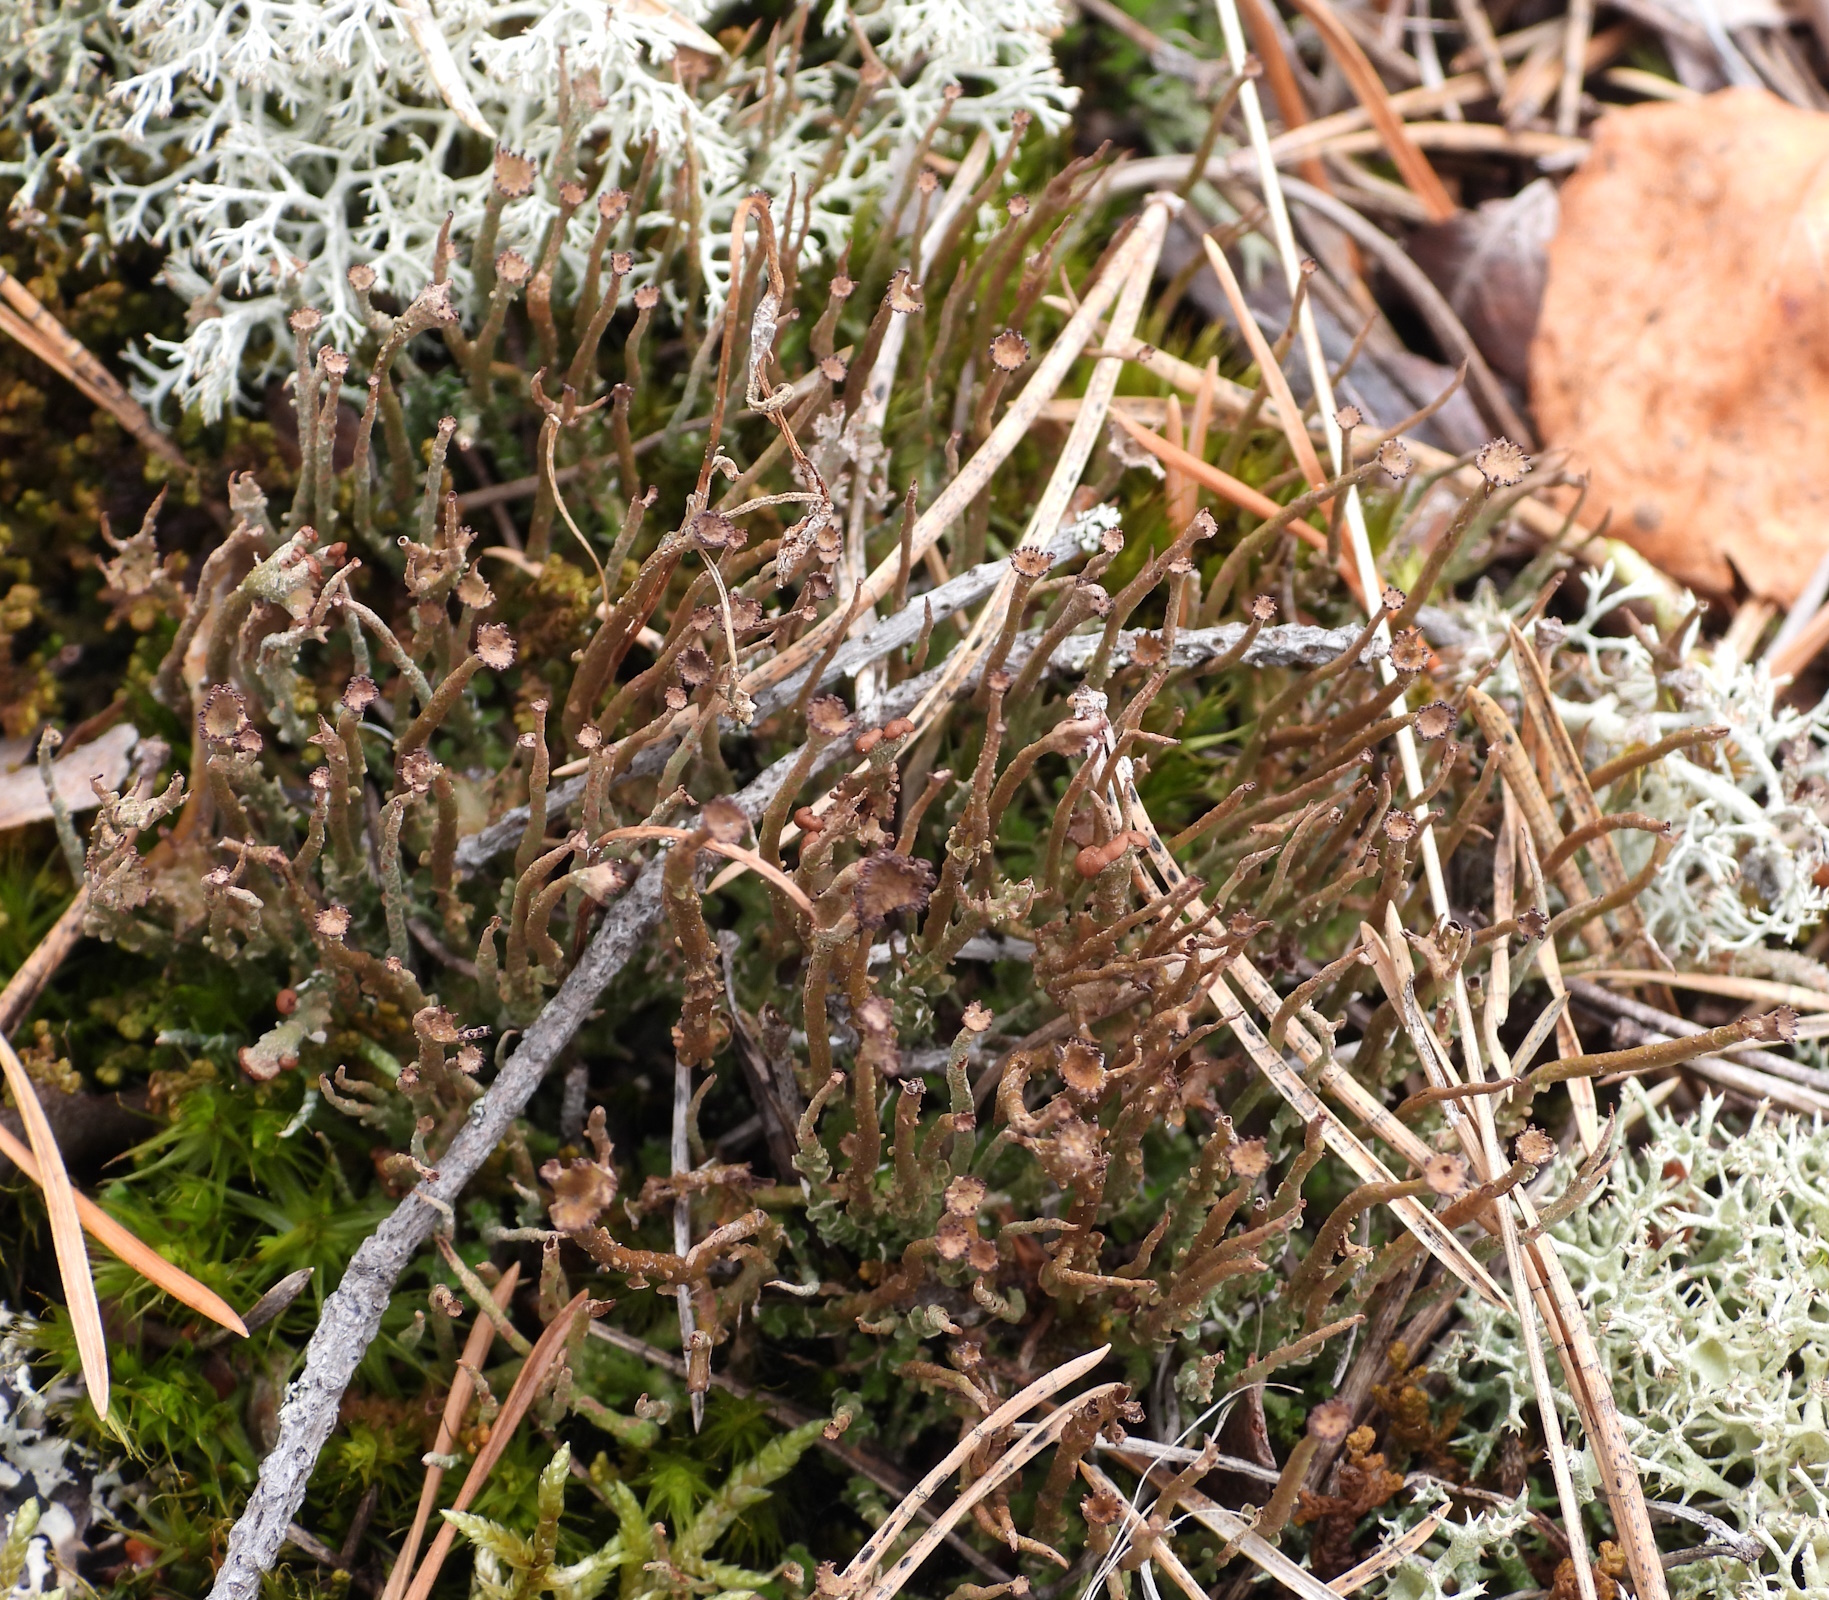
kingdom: Fungi
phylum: Ascomycota
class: Lecanoromycetes
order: Lecanorales
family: Cladoniaceae
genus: Cladonia
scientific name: Cladonia gracilis
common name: Smooth clad lichen
